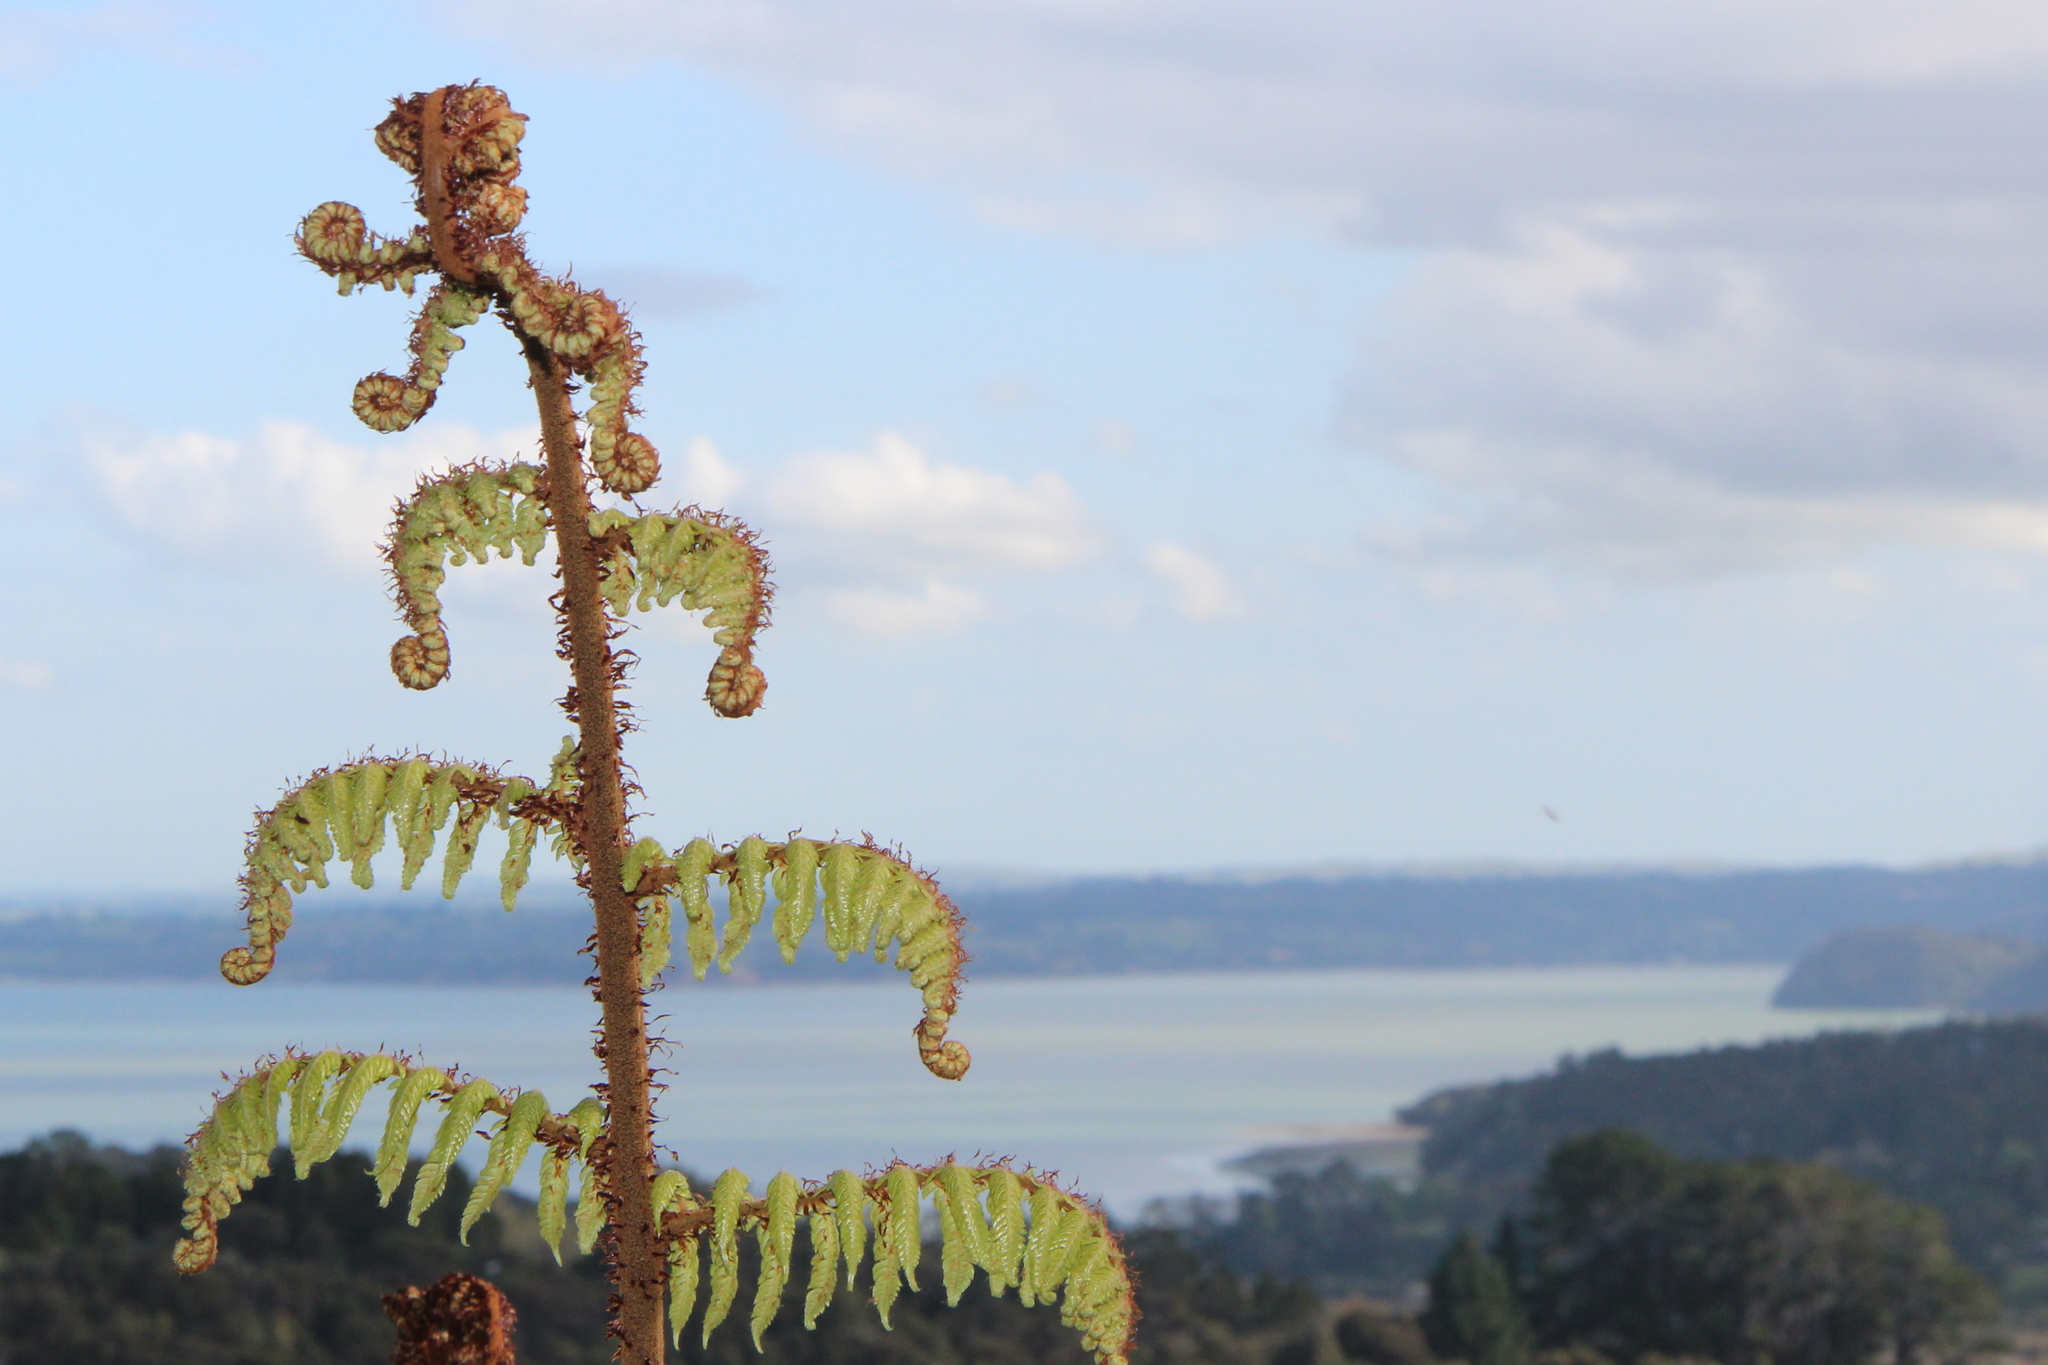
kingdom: Plantae
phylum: Tracheophyta
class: Polypodiopsida
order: Cyatheales
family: Cyatheaceae
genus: Alsophila
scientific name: Alsophila dealbata
